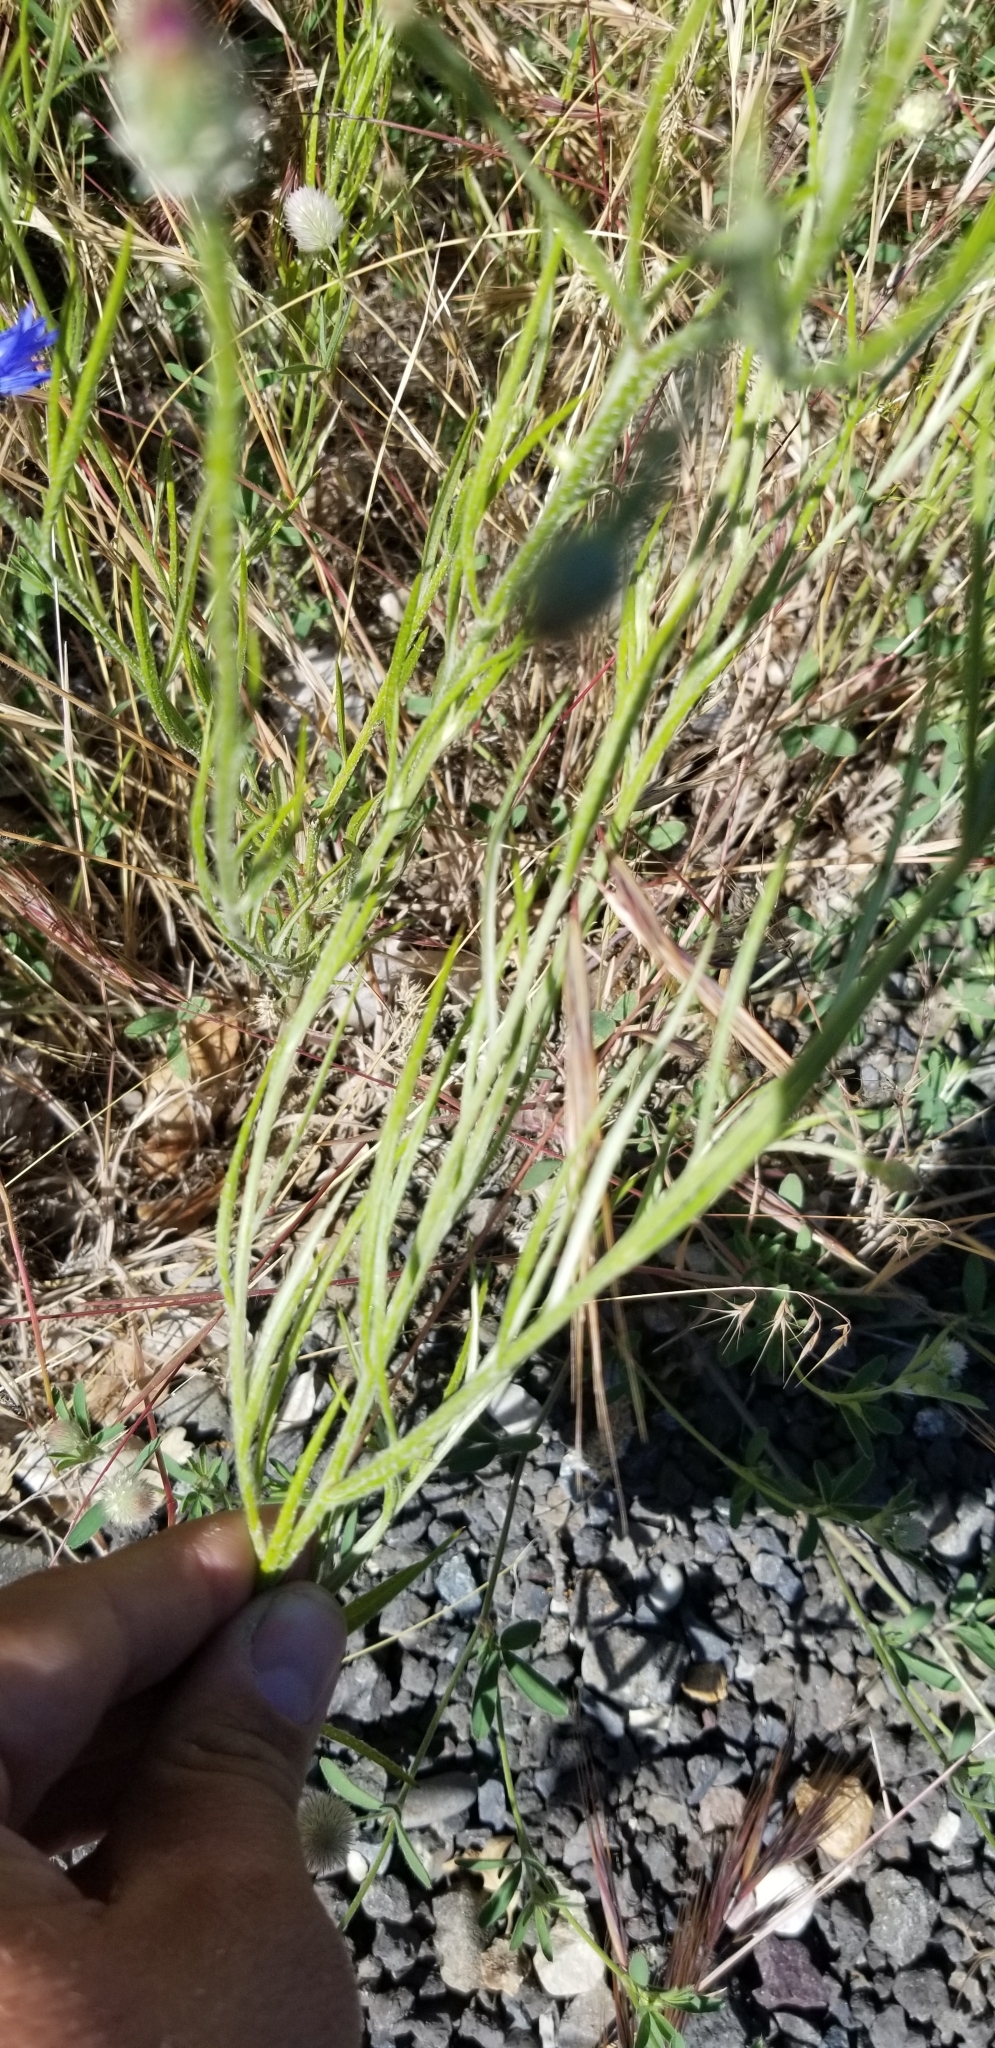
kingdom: Plantae
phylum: Tracheophyta
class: Magnoliopsida
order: Asterales
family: Asteraceae
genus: Centaurea
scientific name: Centaurea cyanus
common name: Cornflower
